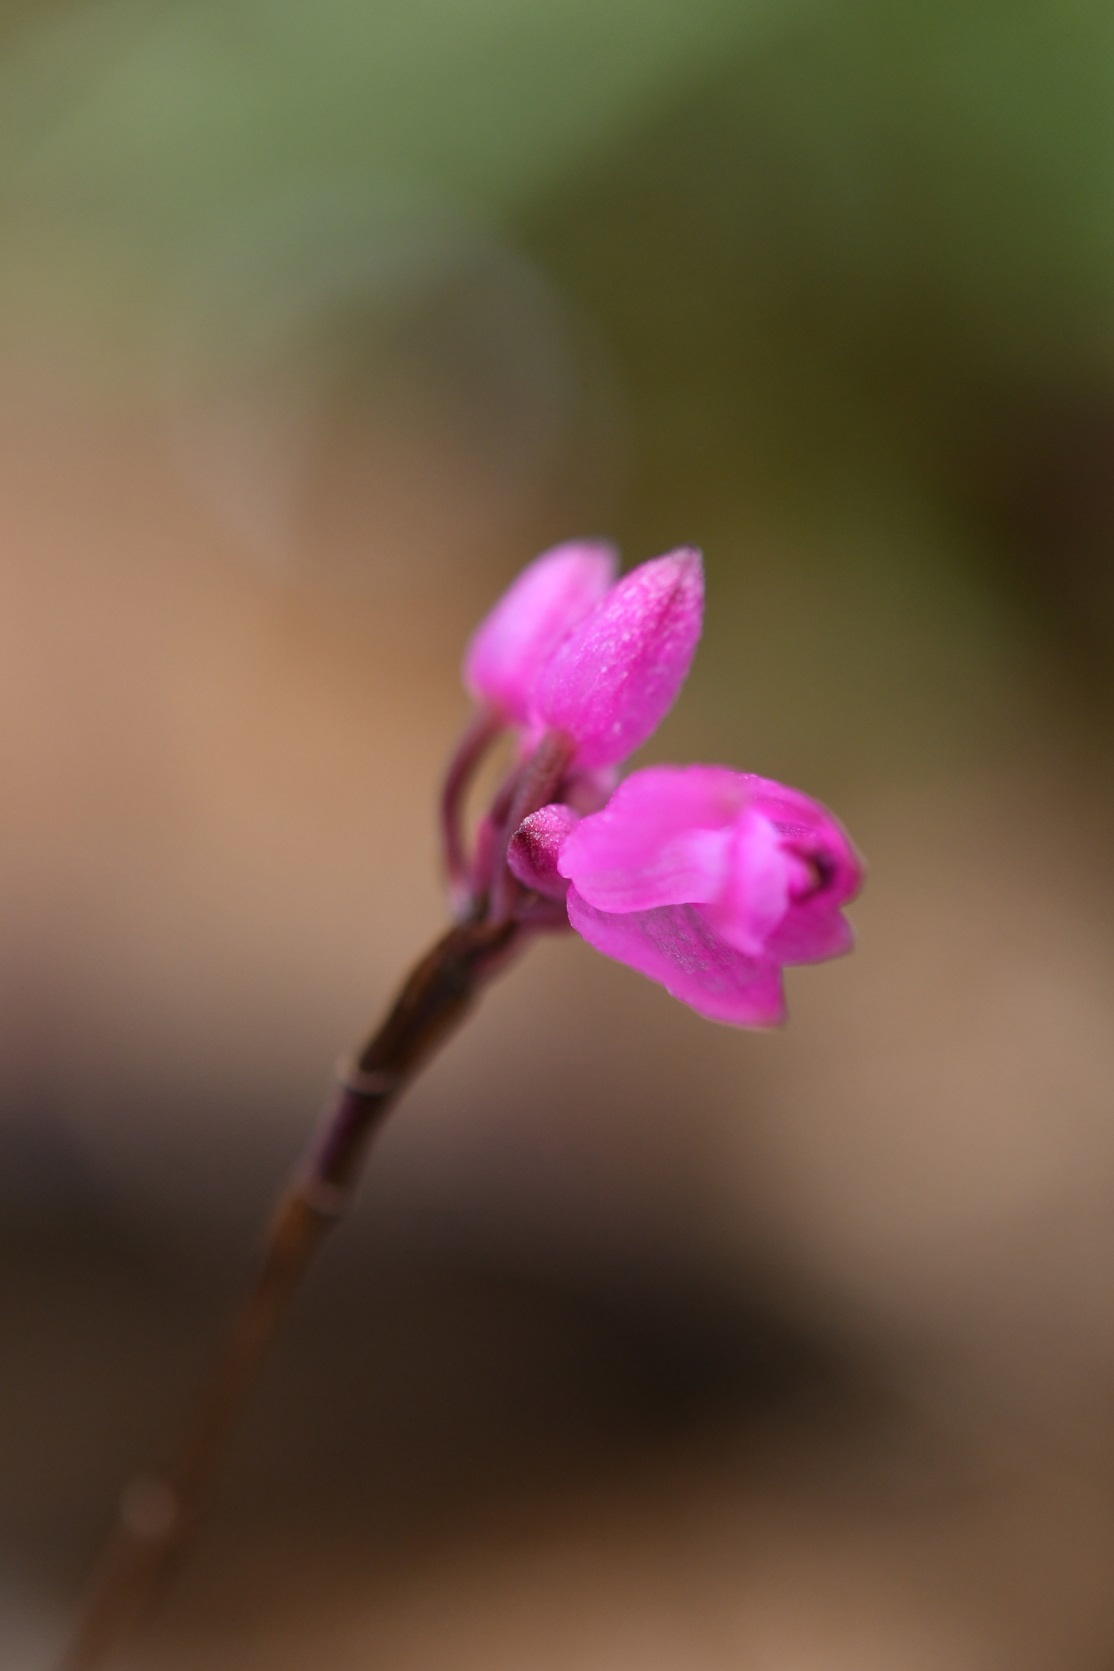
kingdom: Plantae
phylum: Tracheophyta
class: Liliopsida
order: Asparagales
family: Orchidaceae
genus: Domingoa
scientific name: Domingoa purpurea
